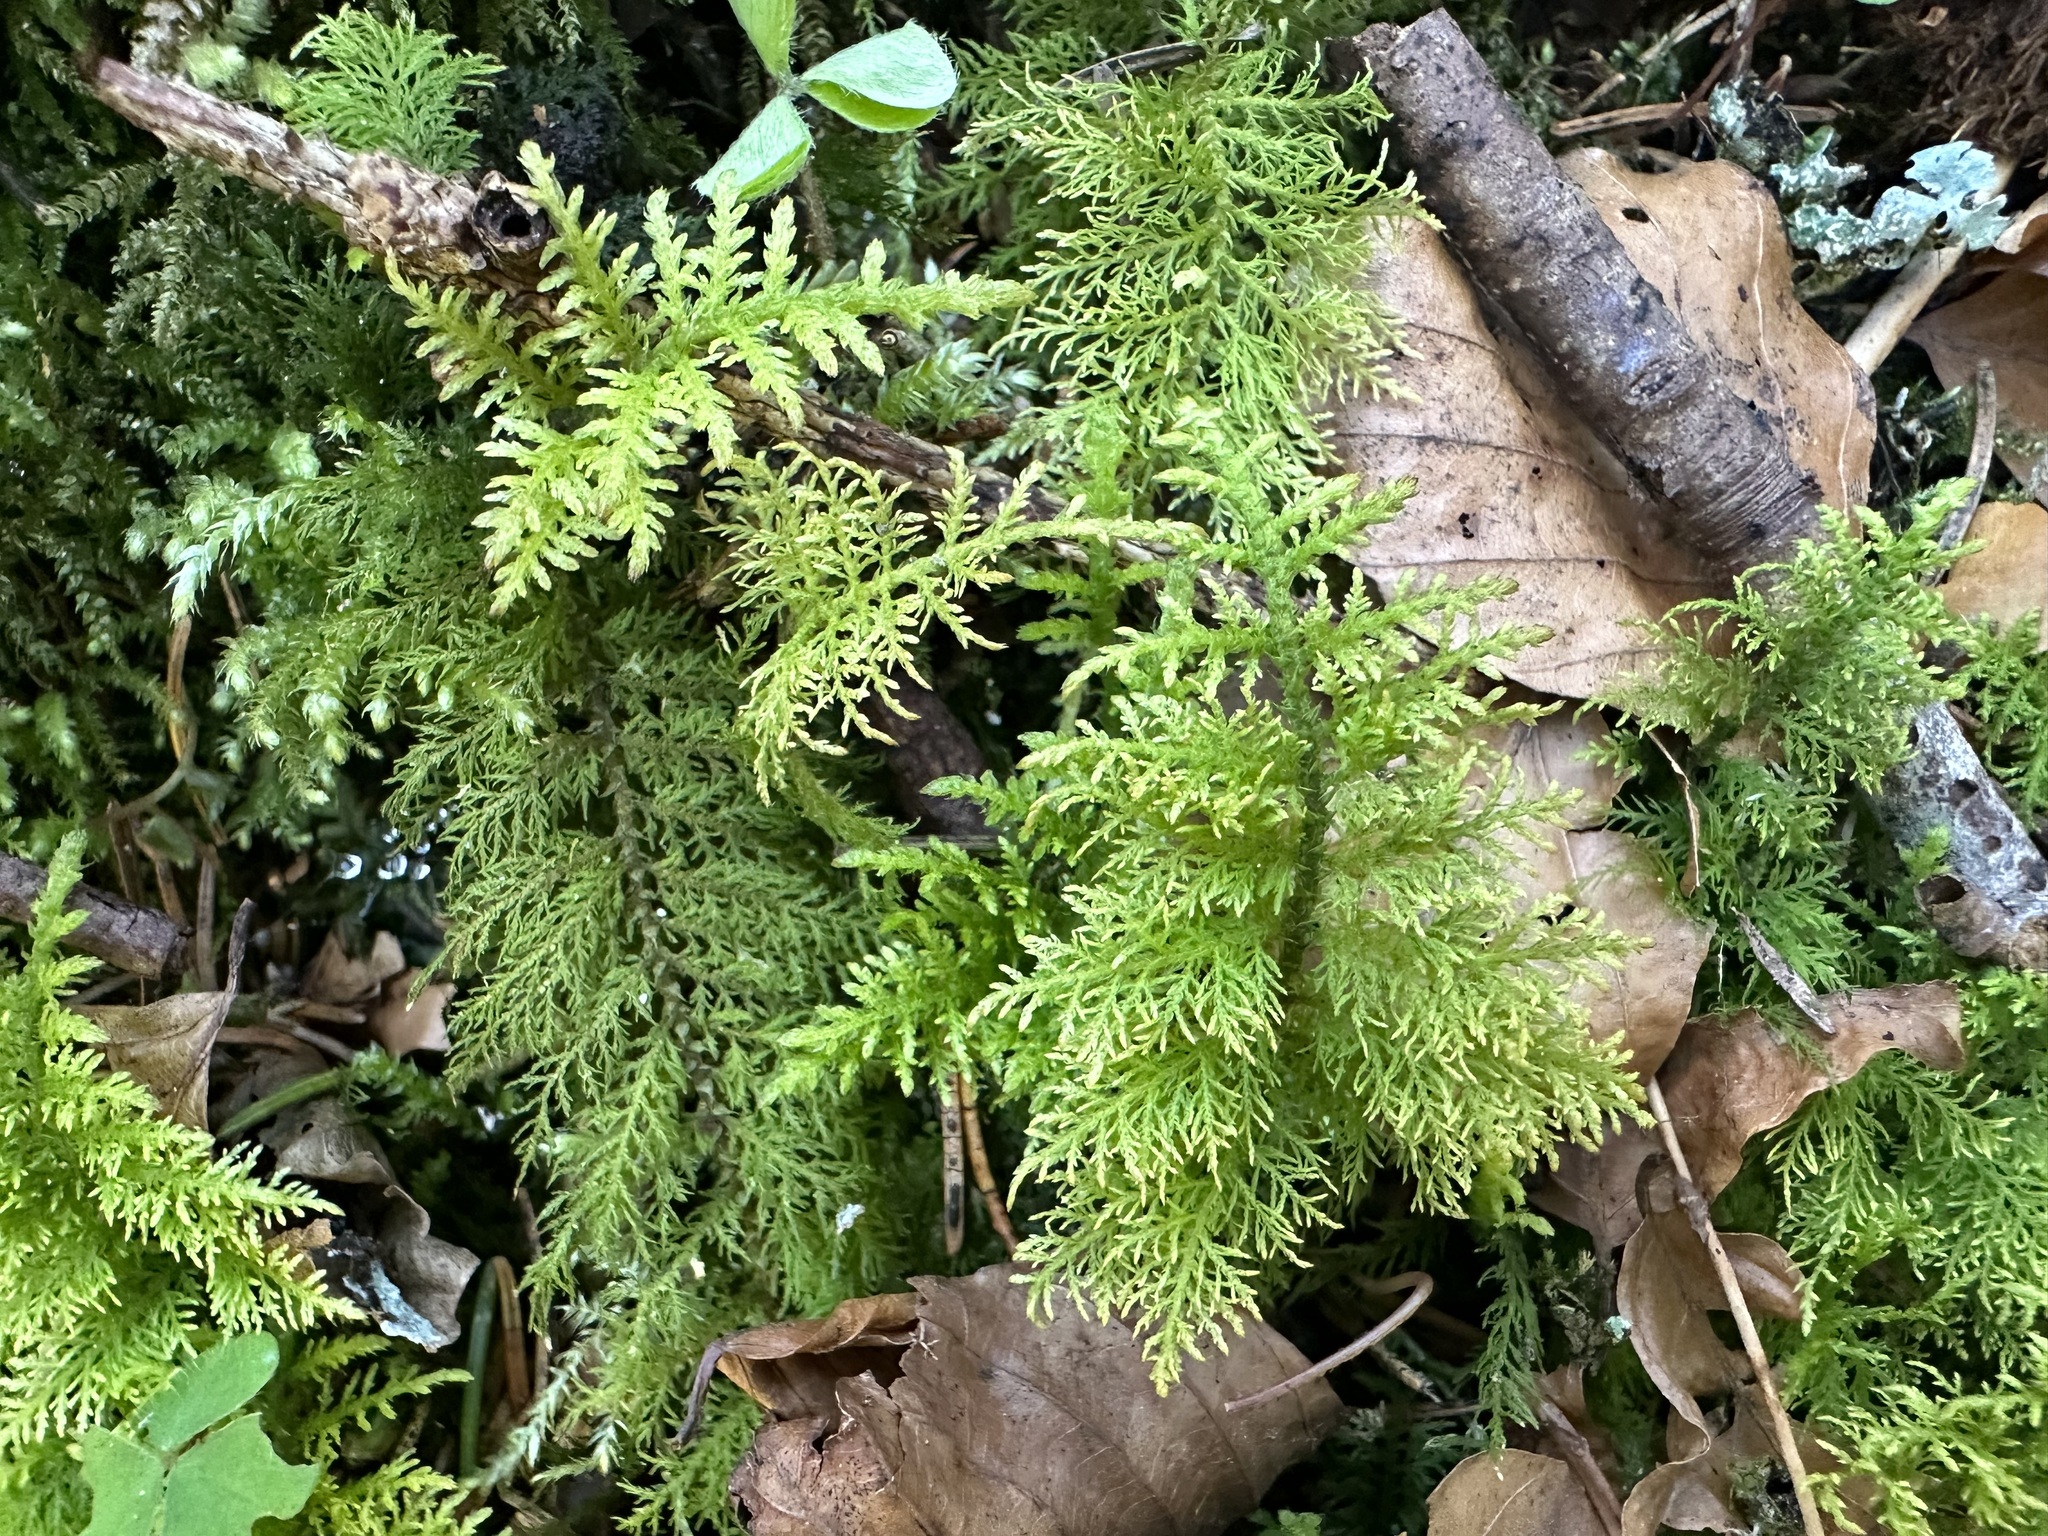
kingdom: Plantae
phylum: Bryophyta
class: Bryopsida
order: Hypnales
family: Thuidiaceae
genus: Thuidium
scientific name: Thuidium tamariscinum
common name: Common tamarisk-moss
